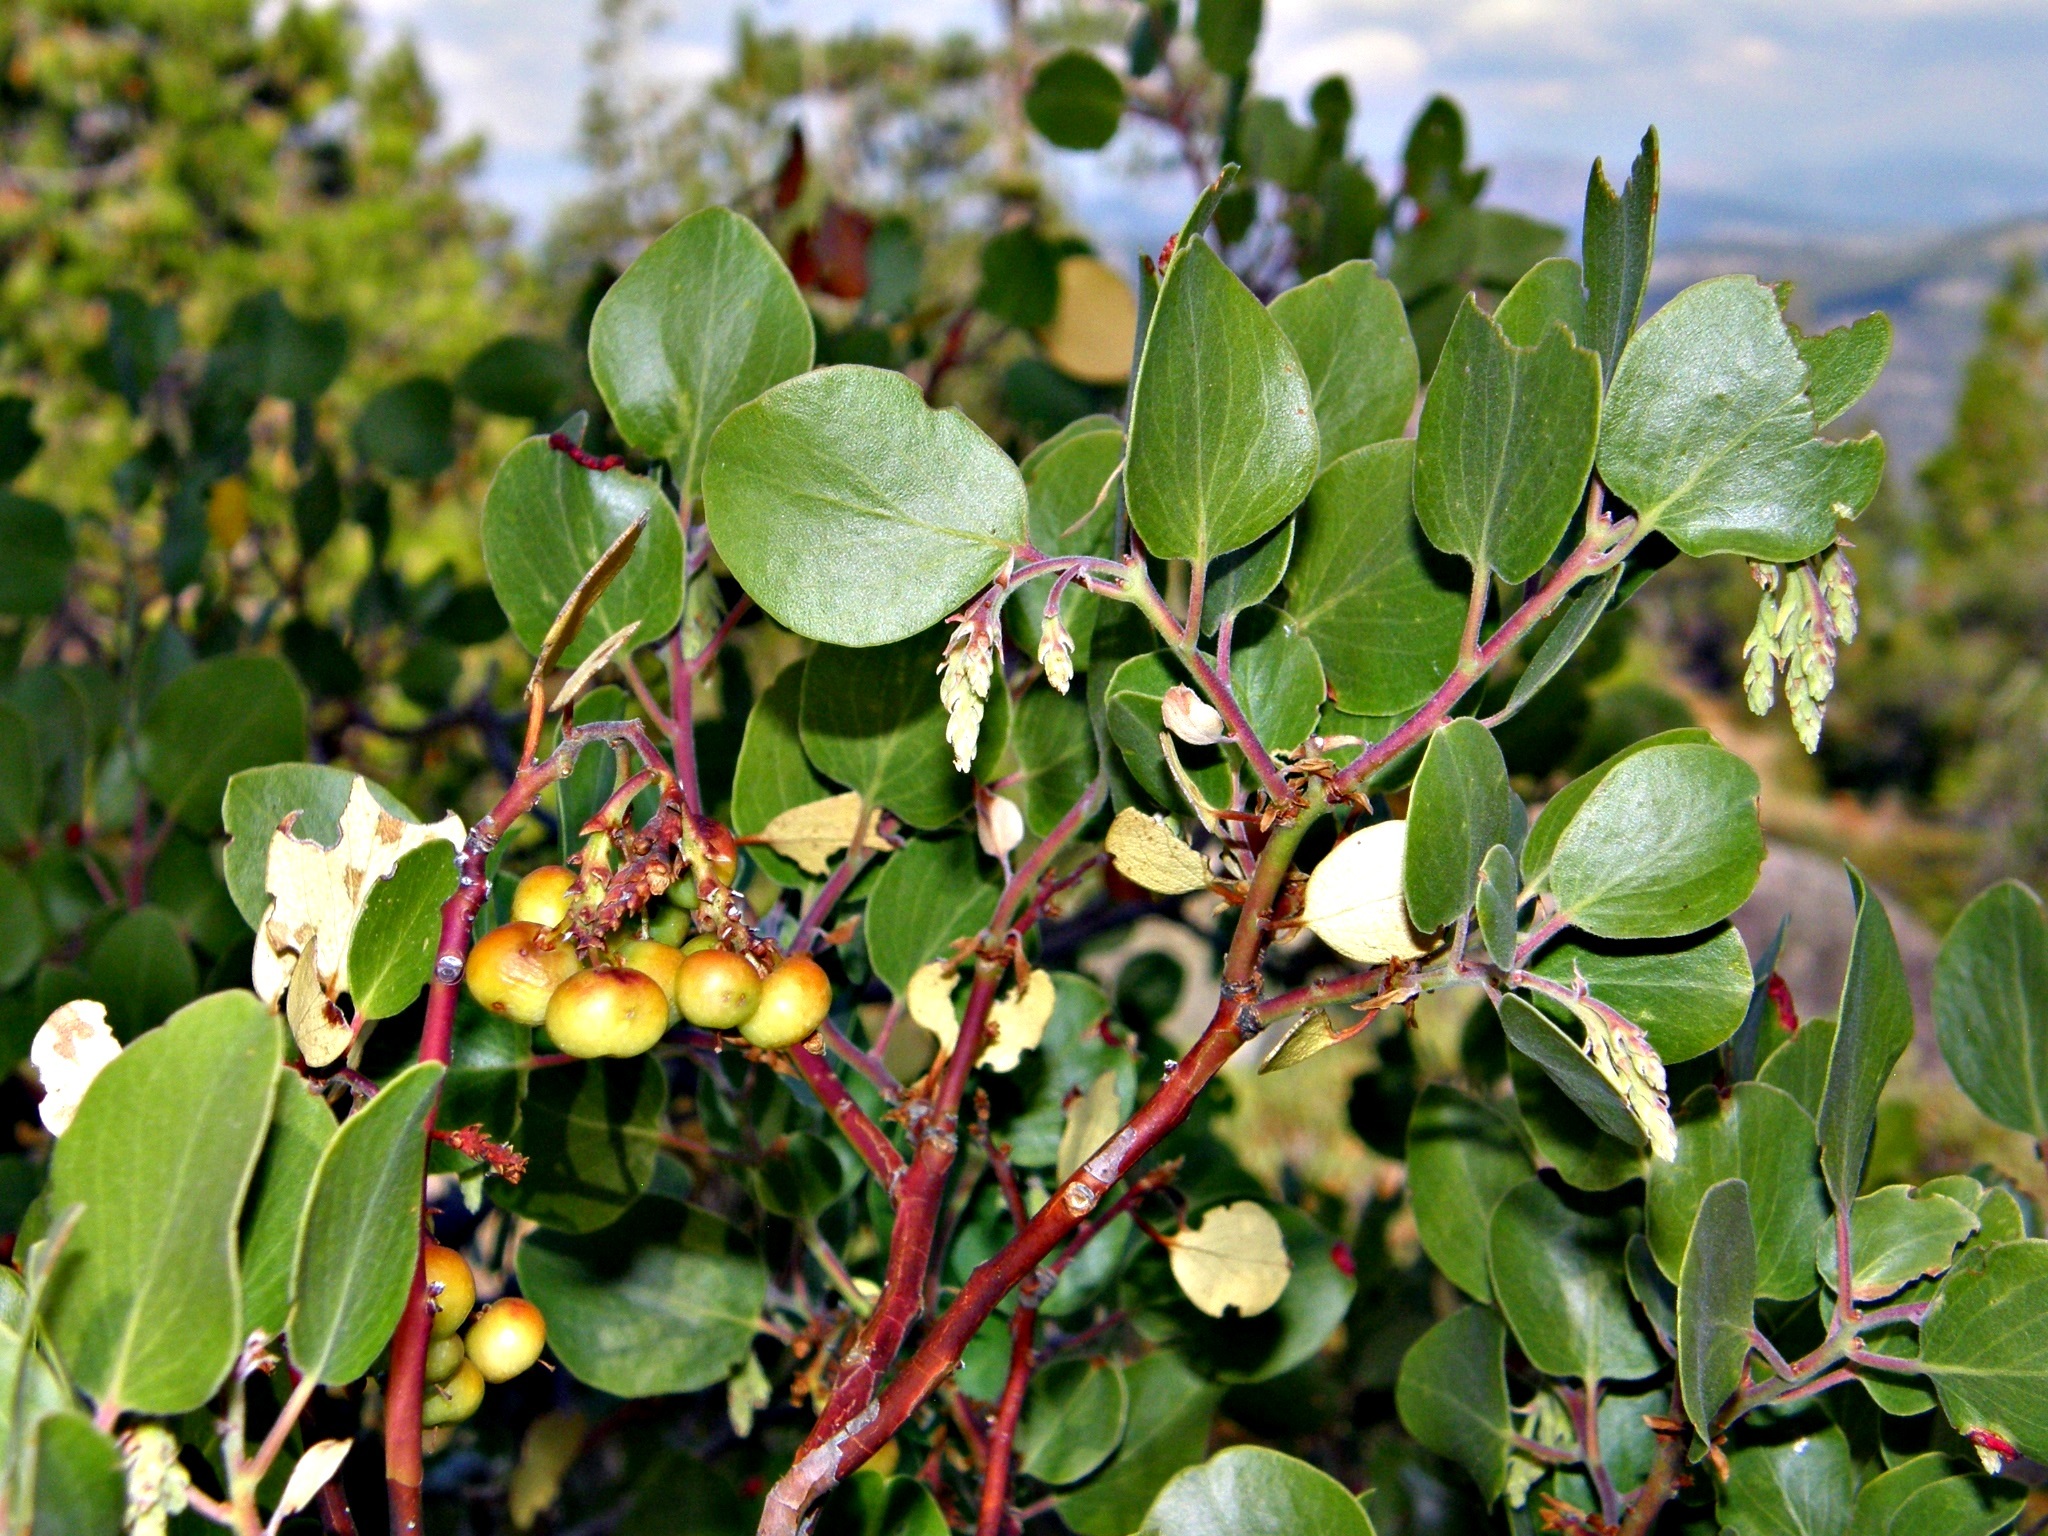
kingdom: Plantae
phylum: Tracheophyta
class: Magnoliopsida
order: Ericales
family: Ericaceae
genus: Arctostaphylos
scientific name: Arctostaphylos patula
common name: Green-leaf manzanita
